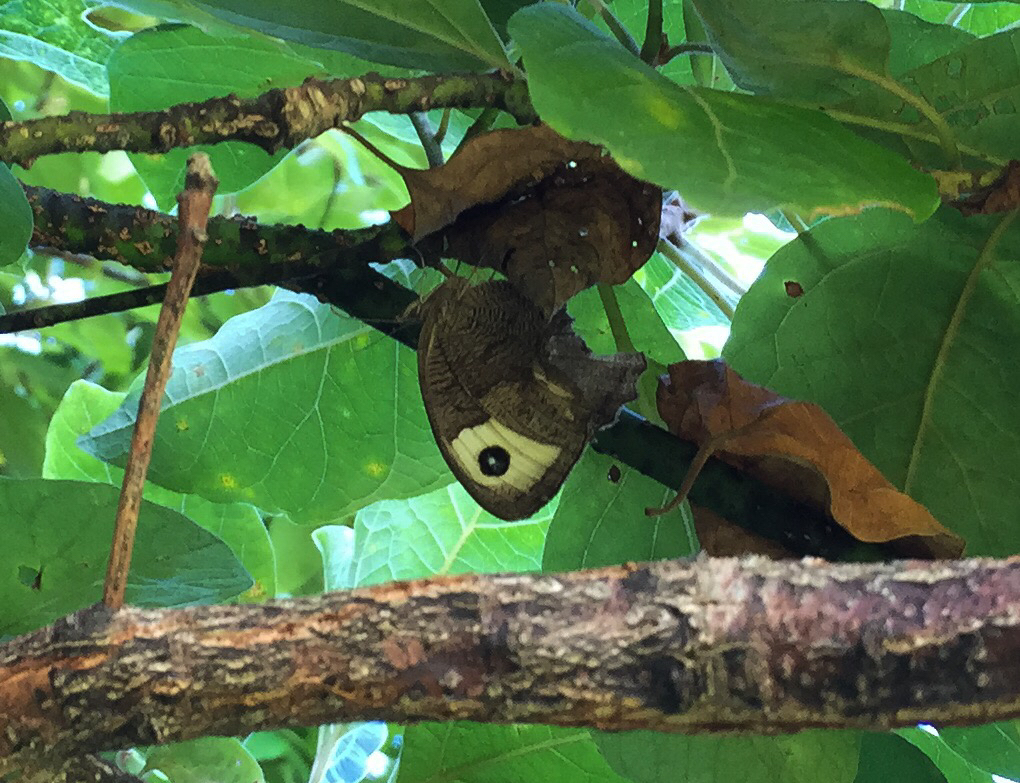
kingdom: Animalia
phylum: Arthropoda
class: Insecta
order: Lepidoptera
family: Nymphalidae
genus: Cercyonis
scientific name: Cercyonis pegala
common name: Common wood-nymph
